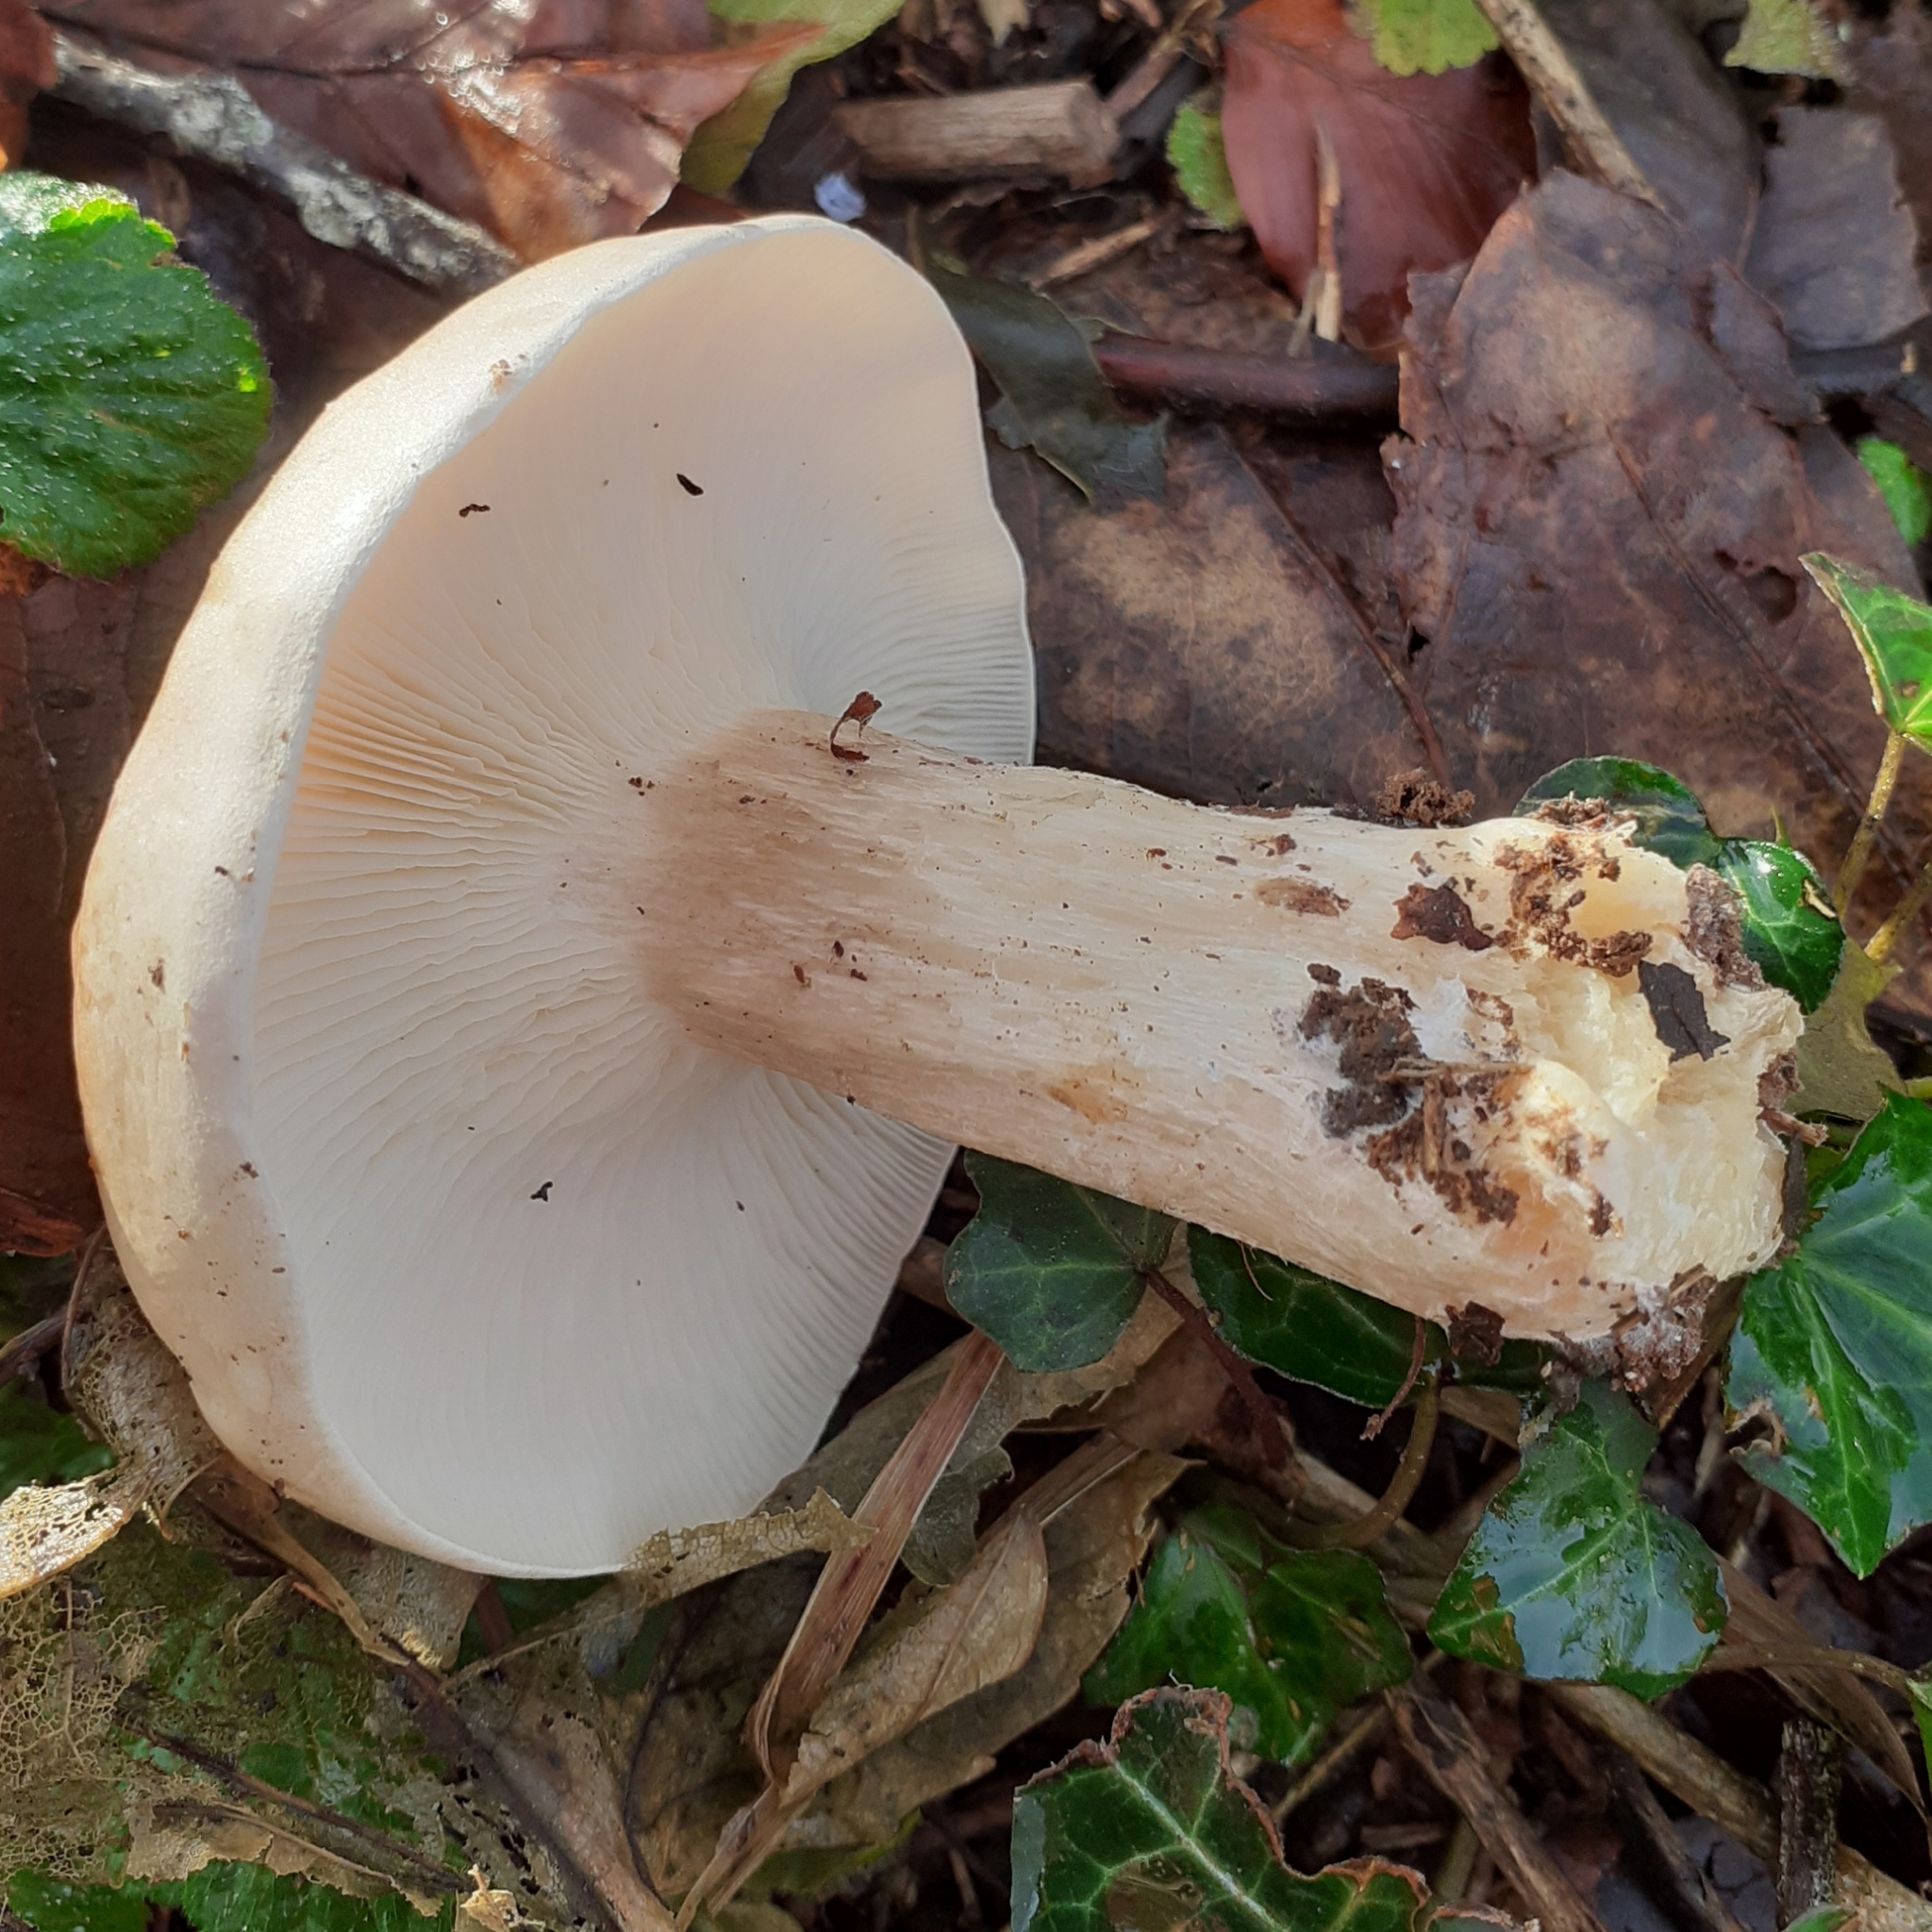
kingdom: Fungi
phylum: Basidiomycota
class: Agaricomycetes
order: Agaricales
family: Tricholomataceae
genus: Clitocybe
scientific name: Clitocybe nebularis
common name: Clouded agaric
